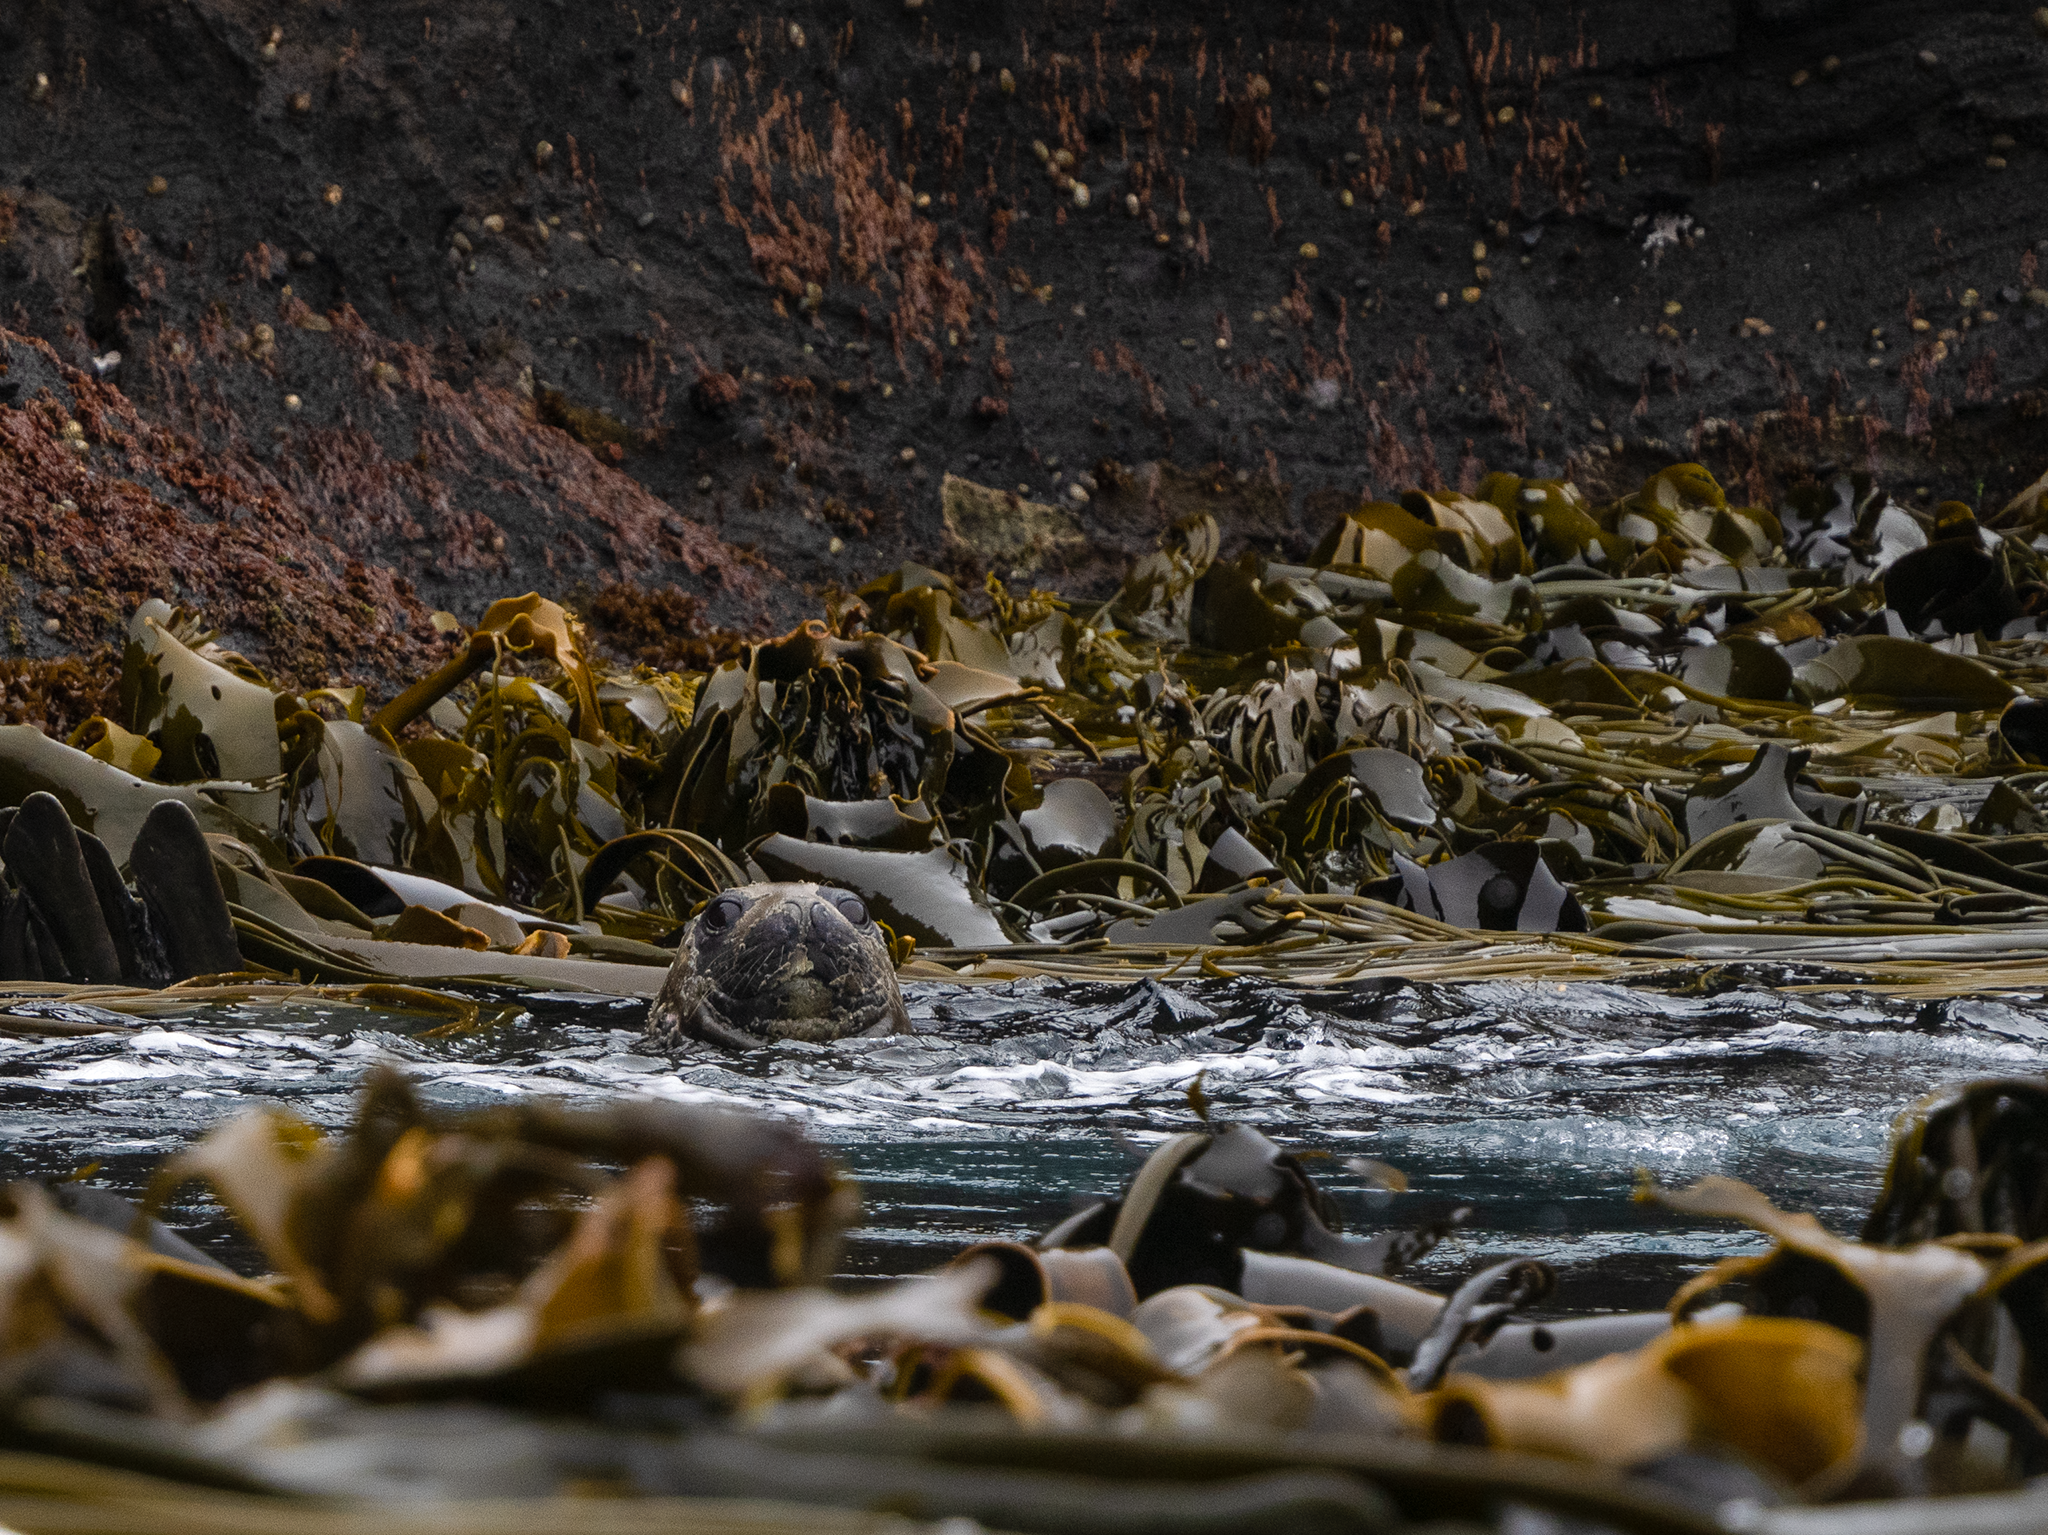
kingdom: Animalia
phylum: Chordata
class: Mammalia
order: Carnivora
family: Phocidae
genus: Mirounga
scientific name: Mirounga leonina
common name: Southern elephant seal
